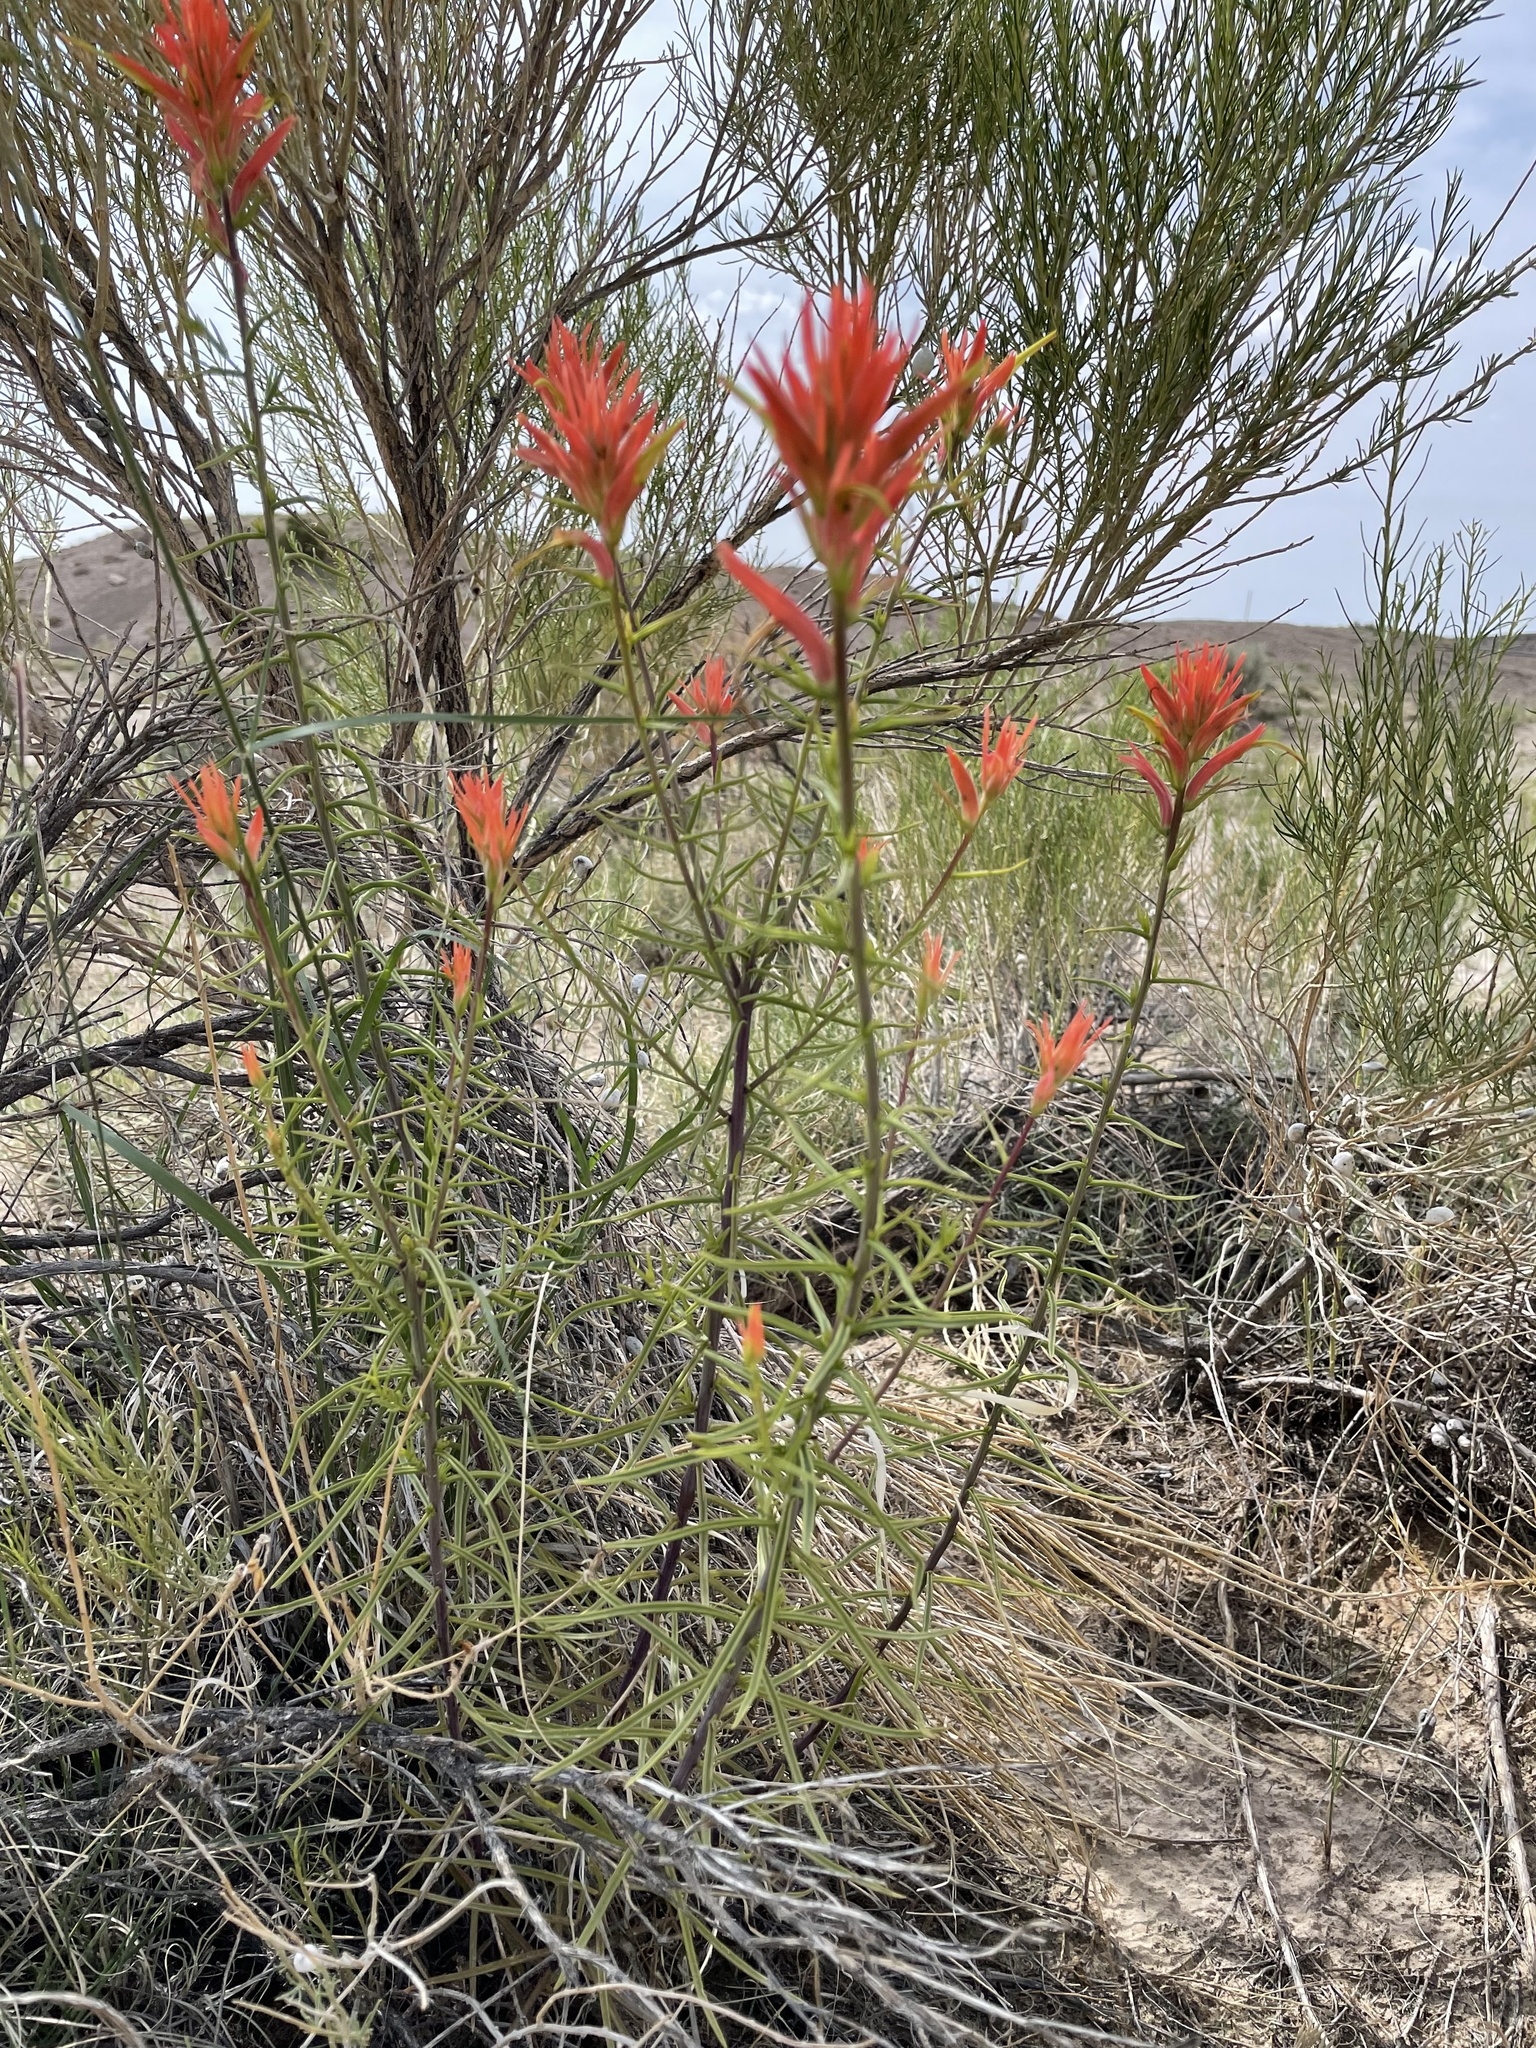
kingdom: Plantae
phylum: Tracheophyta
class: Magnoliopsida
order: Lamiales
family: Orobanchaceae
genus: Castilleja
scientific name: Castilleja linariifolia
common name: Wyoming paintbrush
